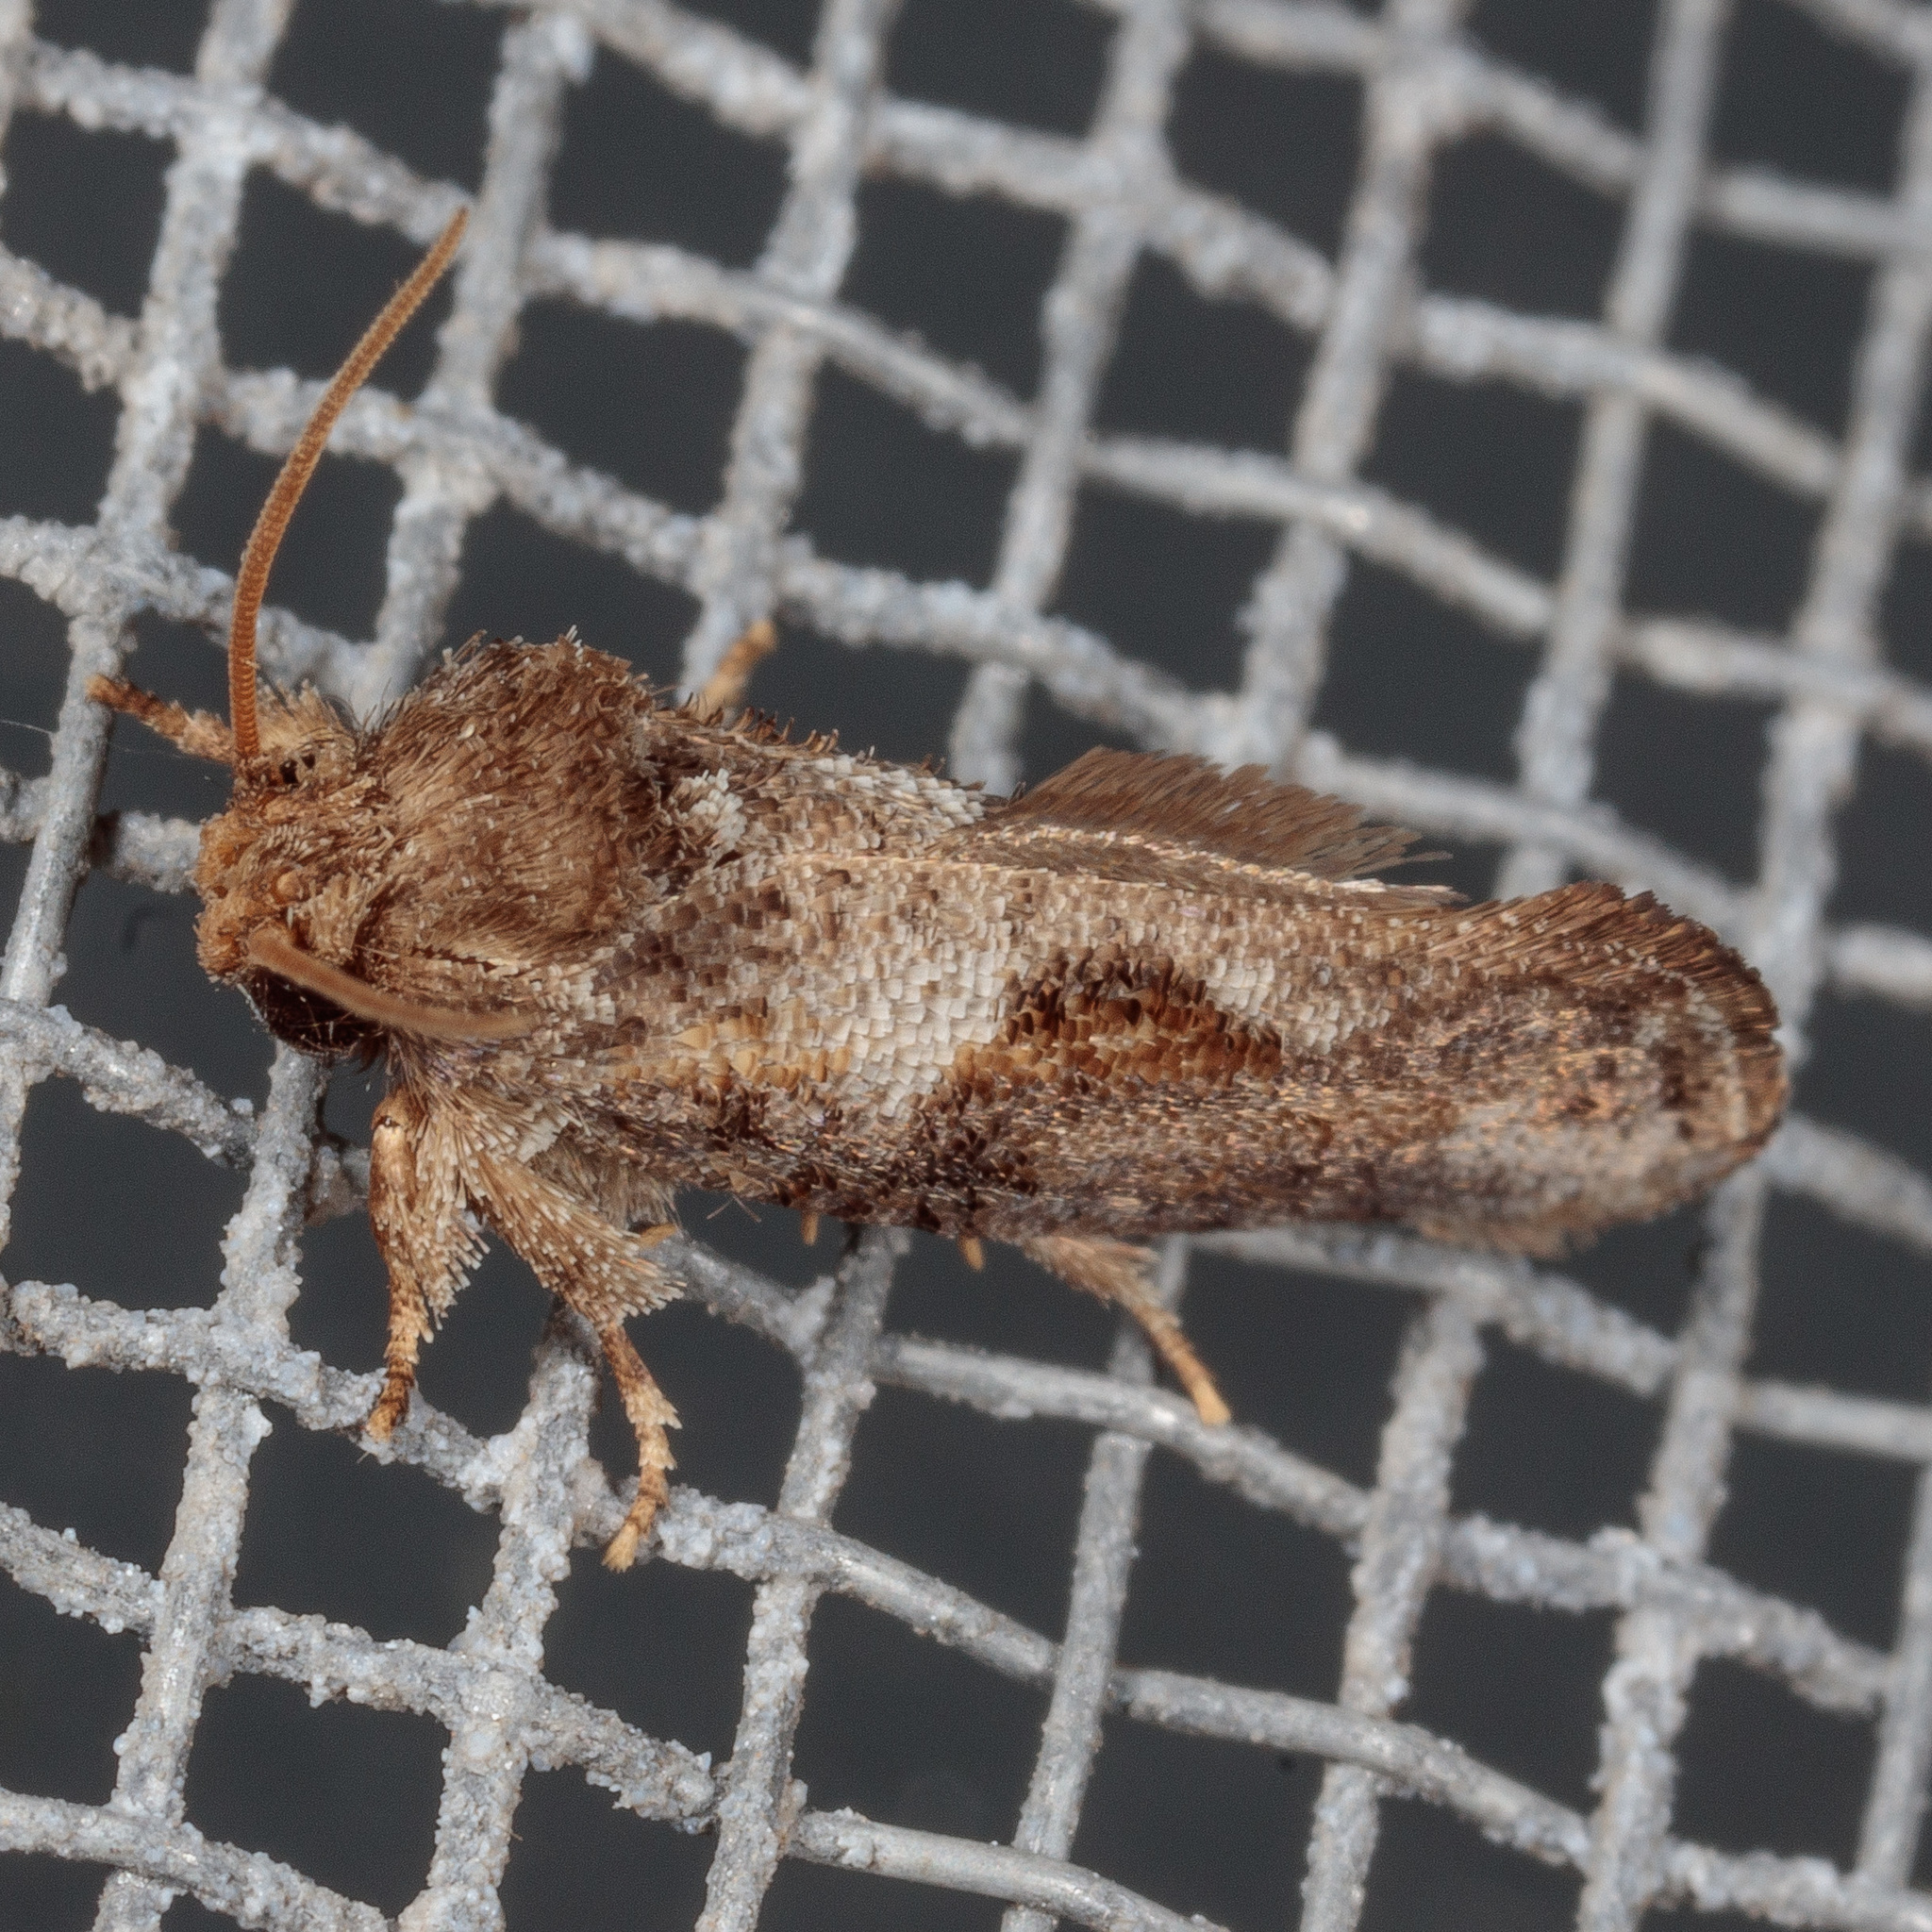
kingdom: Animalia
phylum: Arthropoda
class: Insecta
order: Lepidoptera
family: Tineidae
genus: Acrolophus
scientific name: Acrolophus piger
